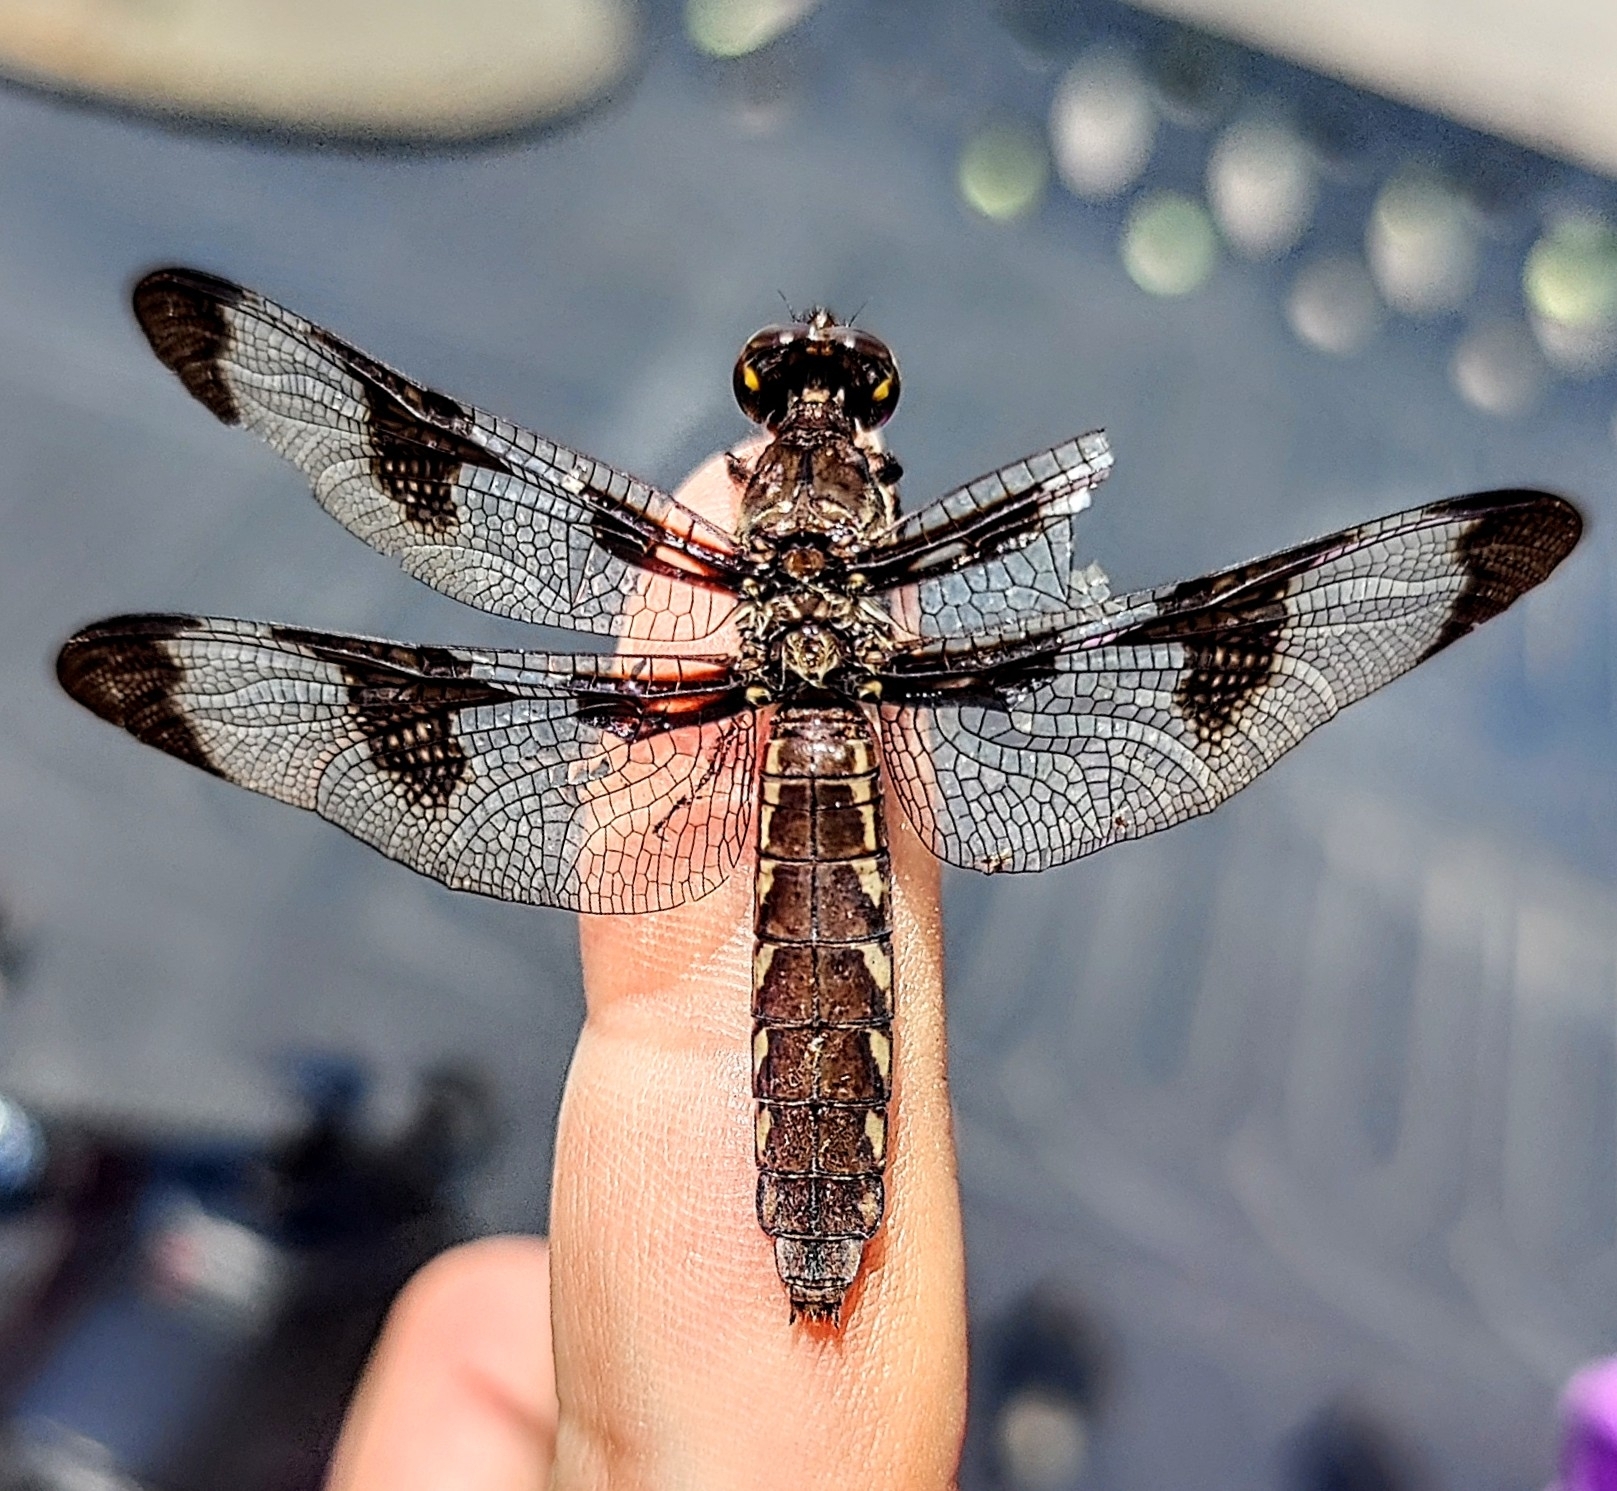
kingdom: Animalia
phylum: Arthropoda
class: Insecta
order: Odonata
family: Libellulidae
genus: Plathemis
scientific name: Plathemis lydia
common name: Common whitetail
